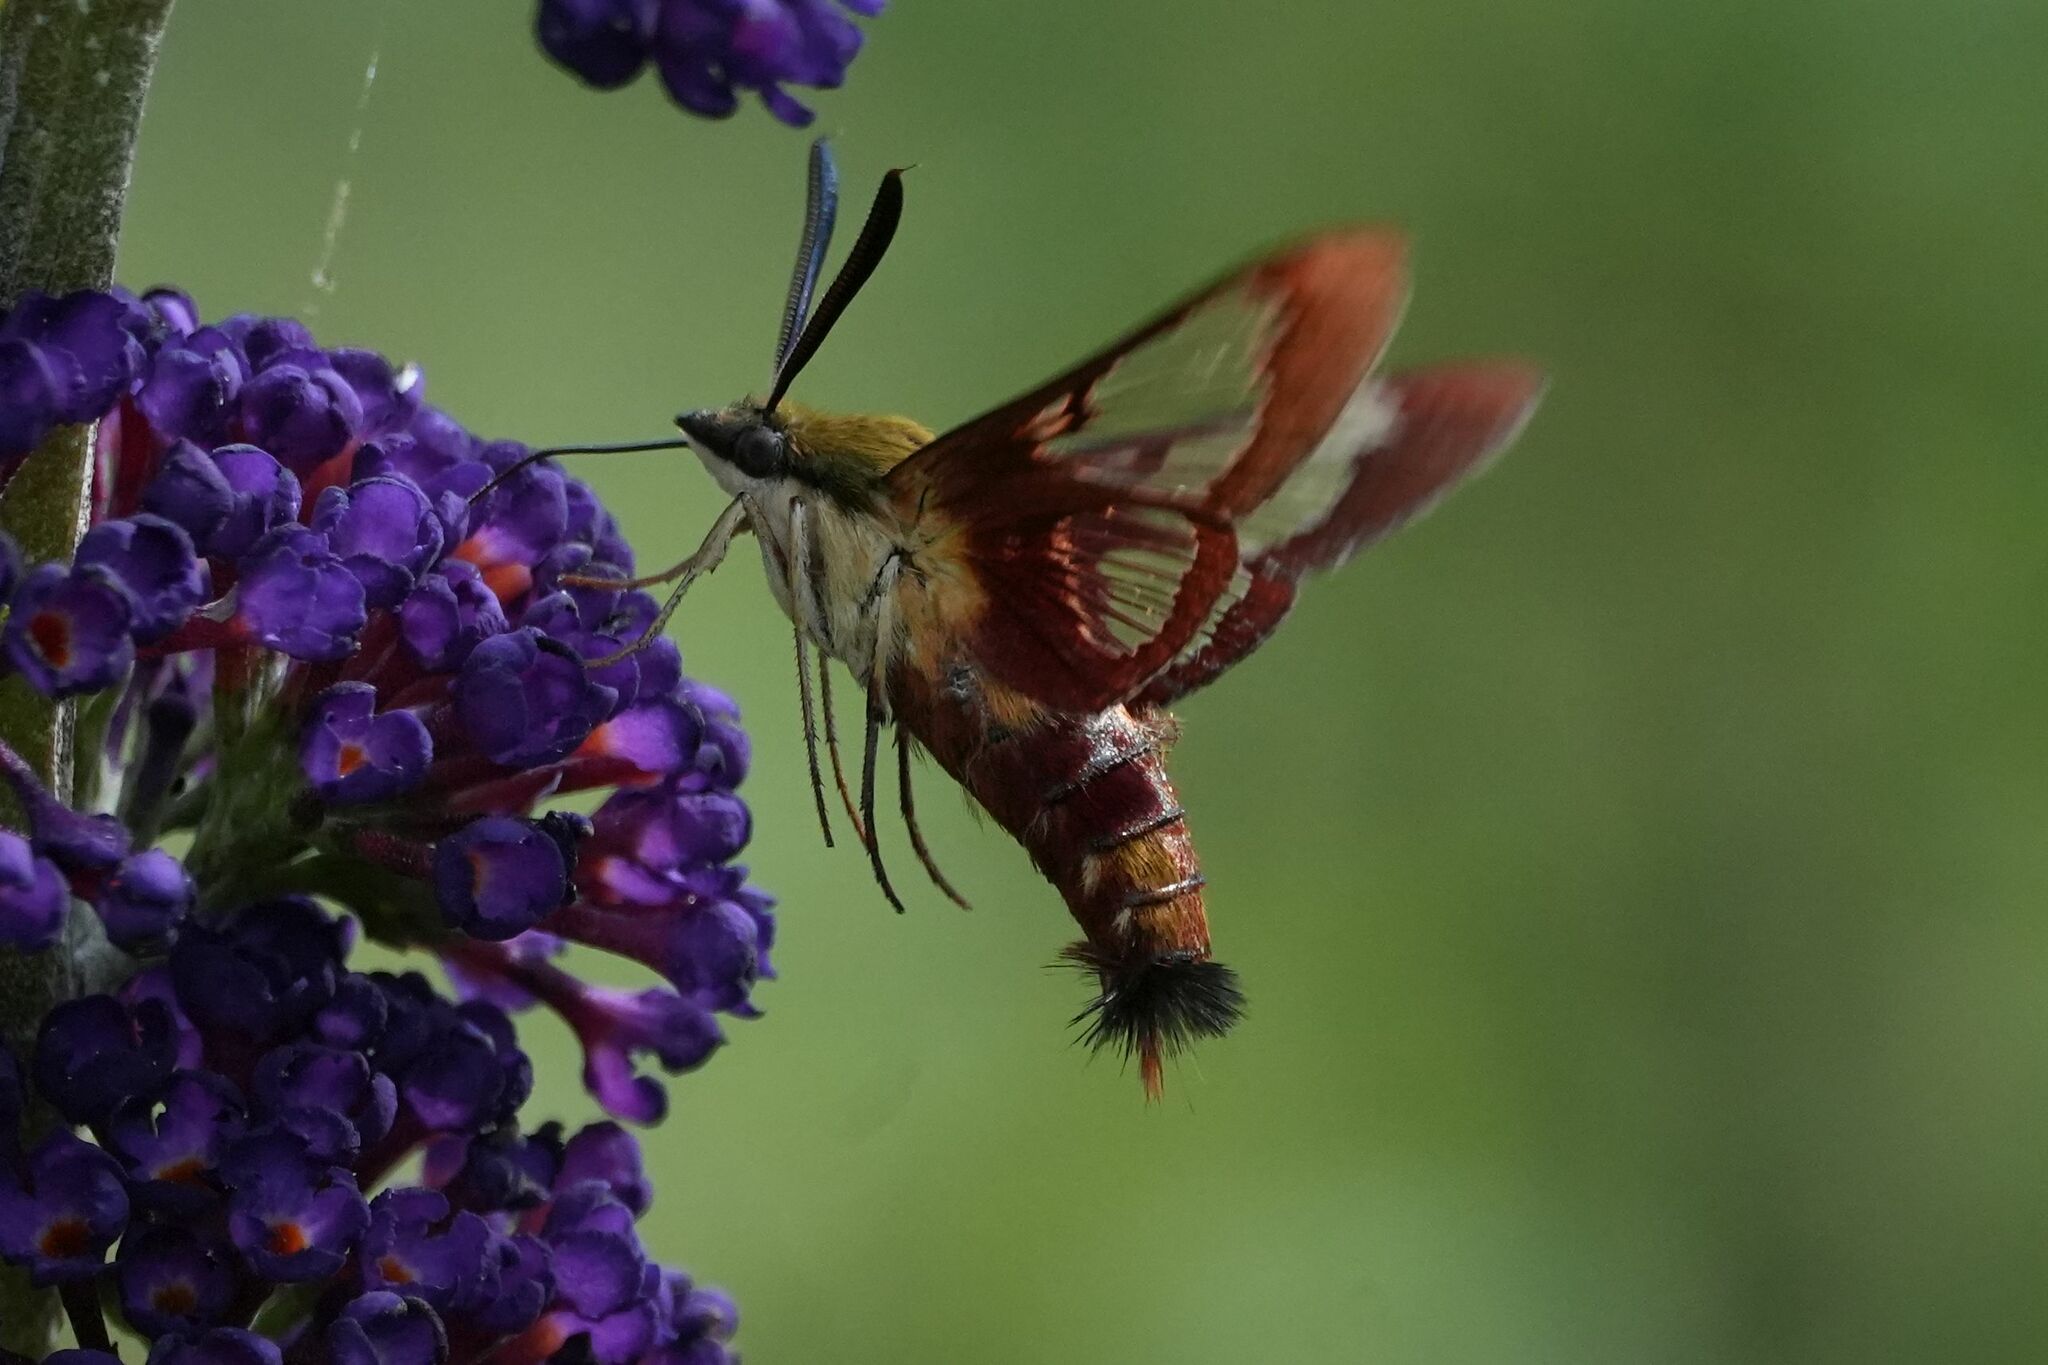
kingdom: Animalia
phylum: Arthropoda
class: Insecta
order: Lepidoptera
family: Sphingidae
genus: Hemaris
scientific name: Hemaris thysbe
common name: Common clear-wing
